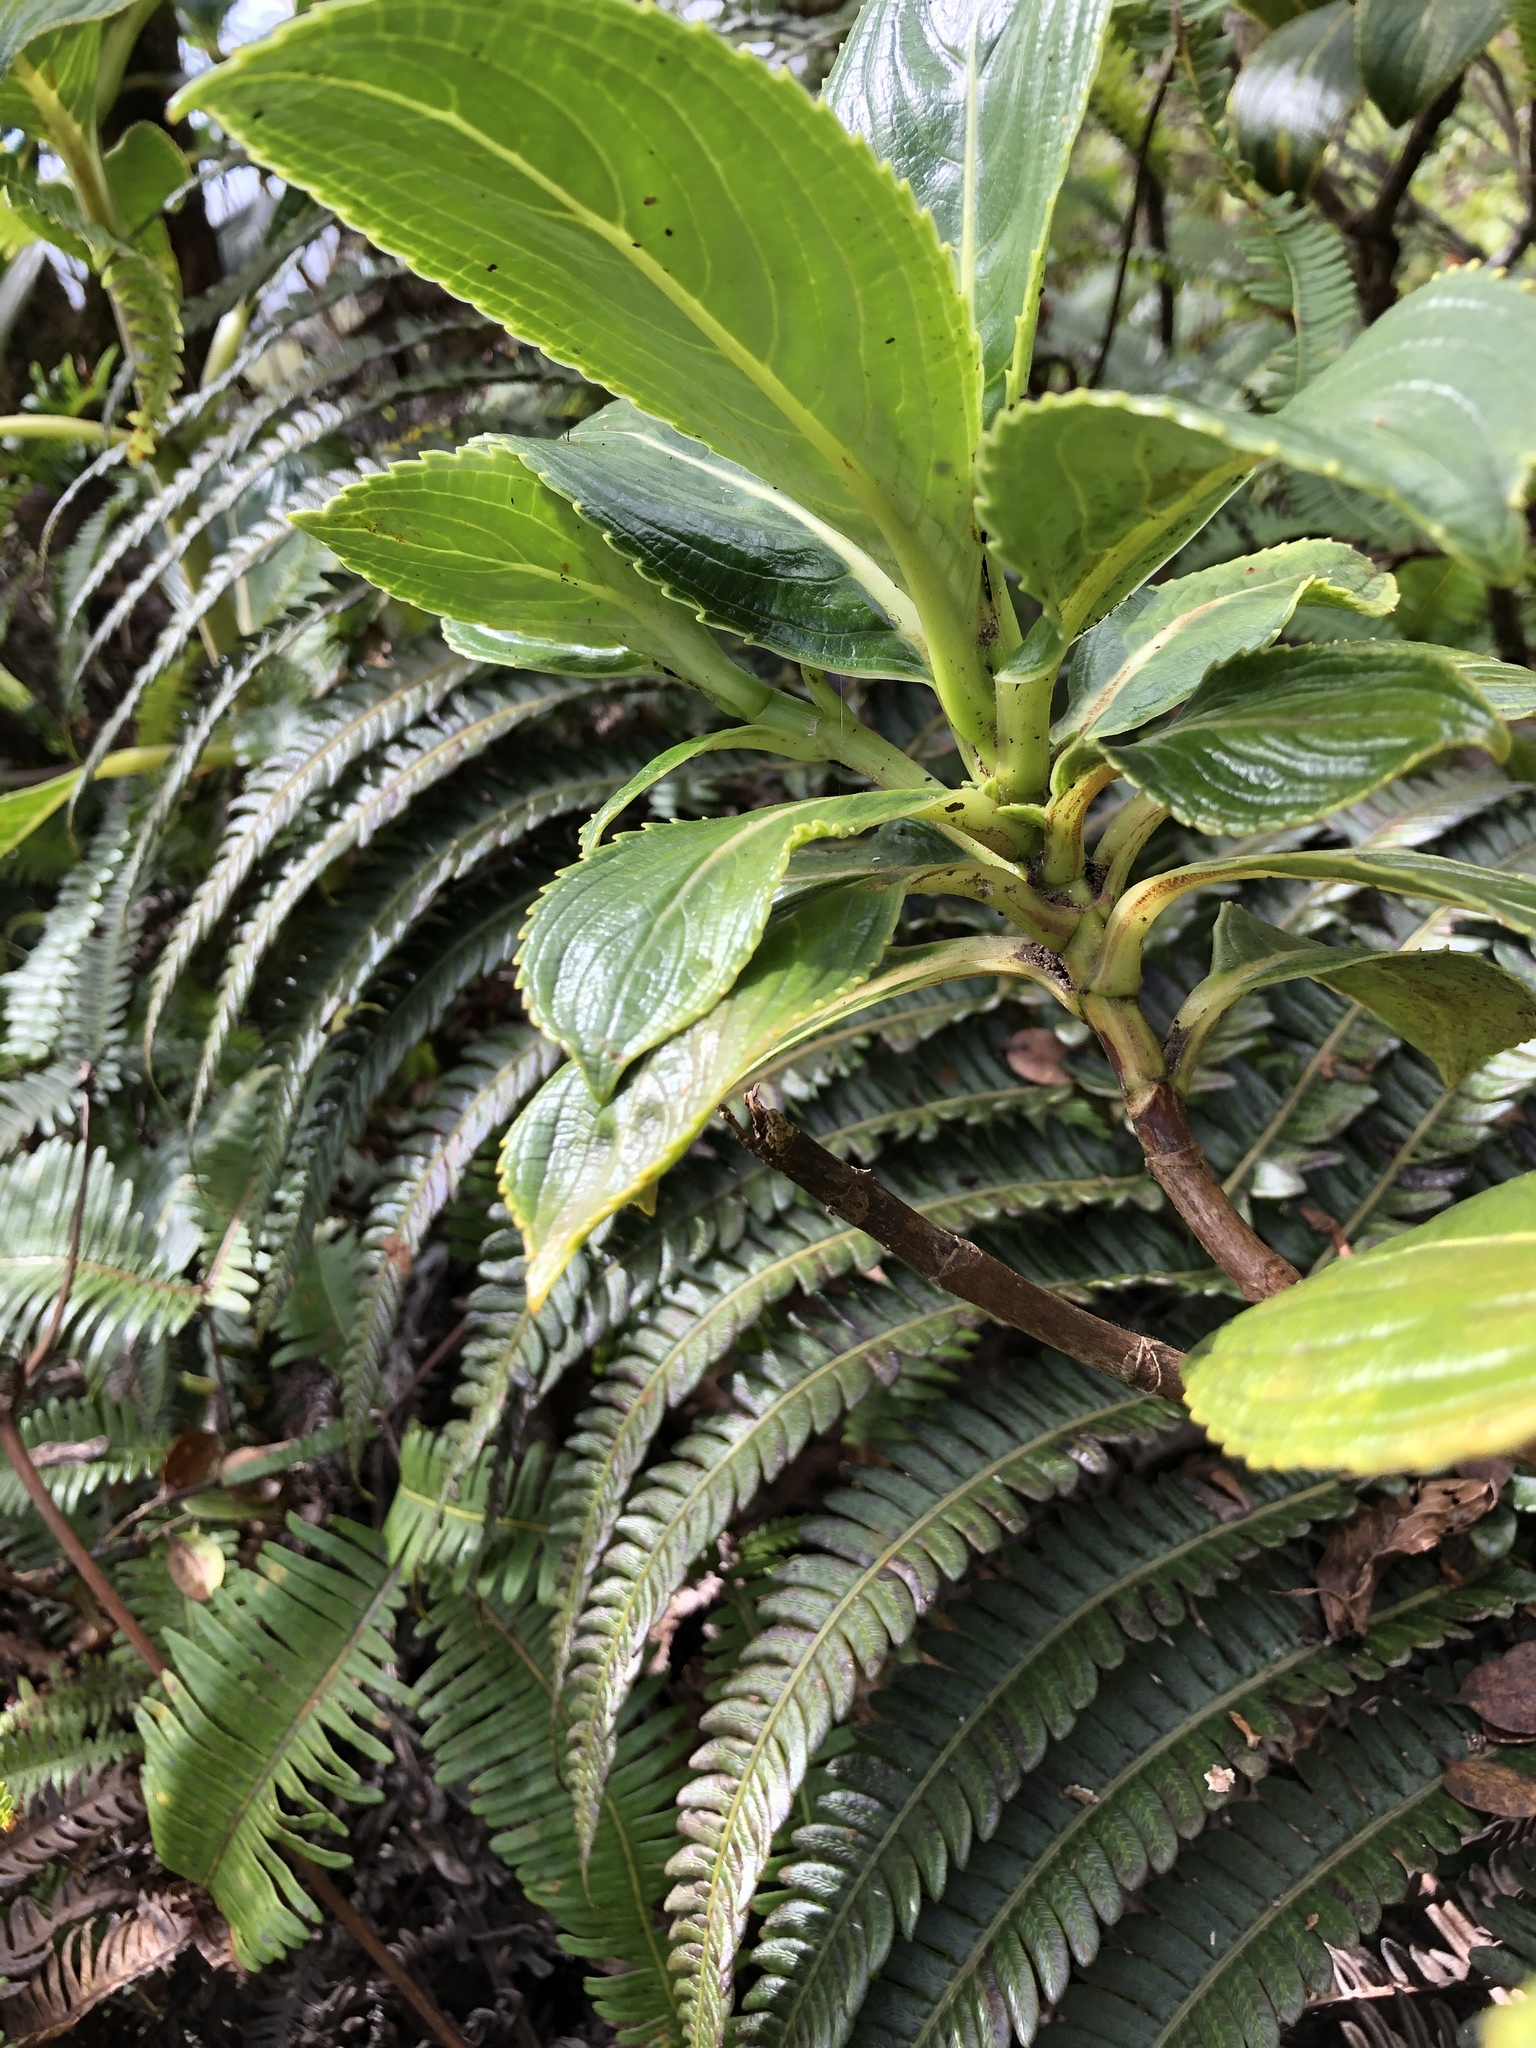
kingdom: Plantae
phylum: Tracheophyta
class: Magnoliopsida
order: Cornales
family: Hydrangeaceae
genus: Hydrangea
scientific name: Hydrangea arguta
